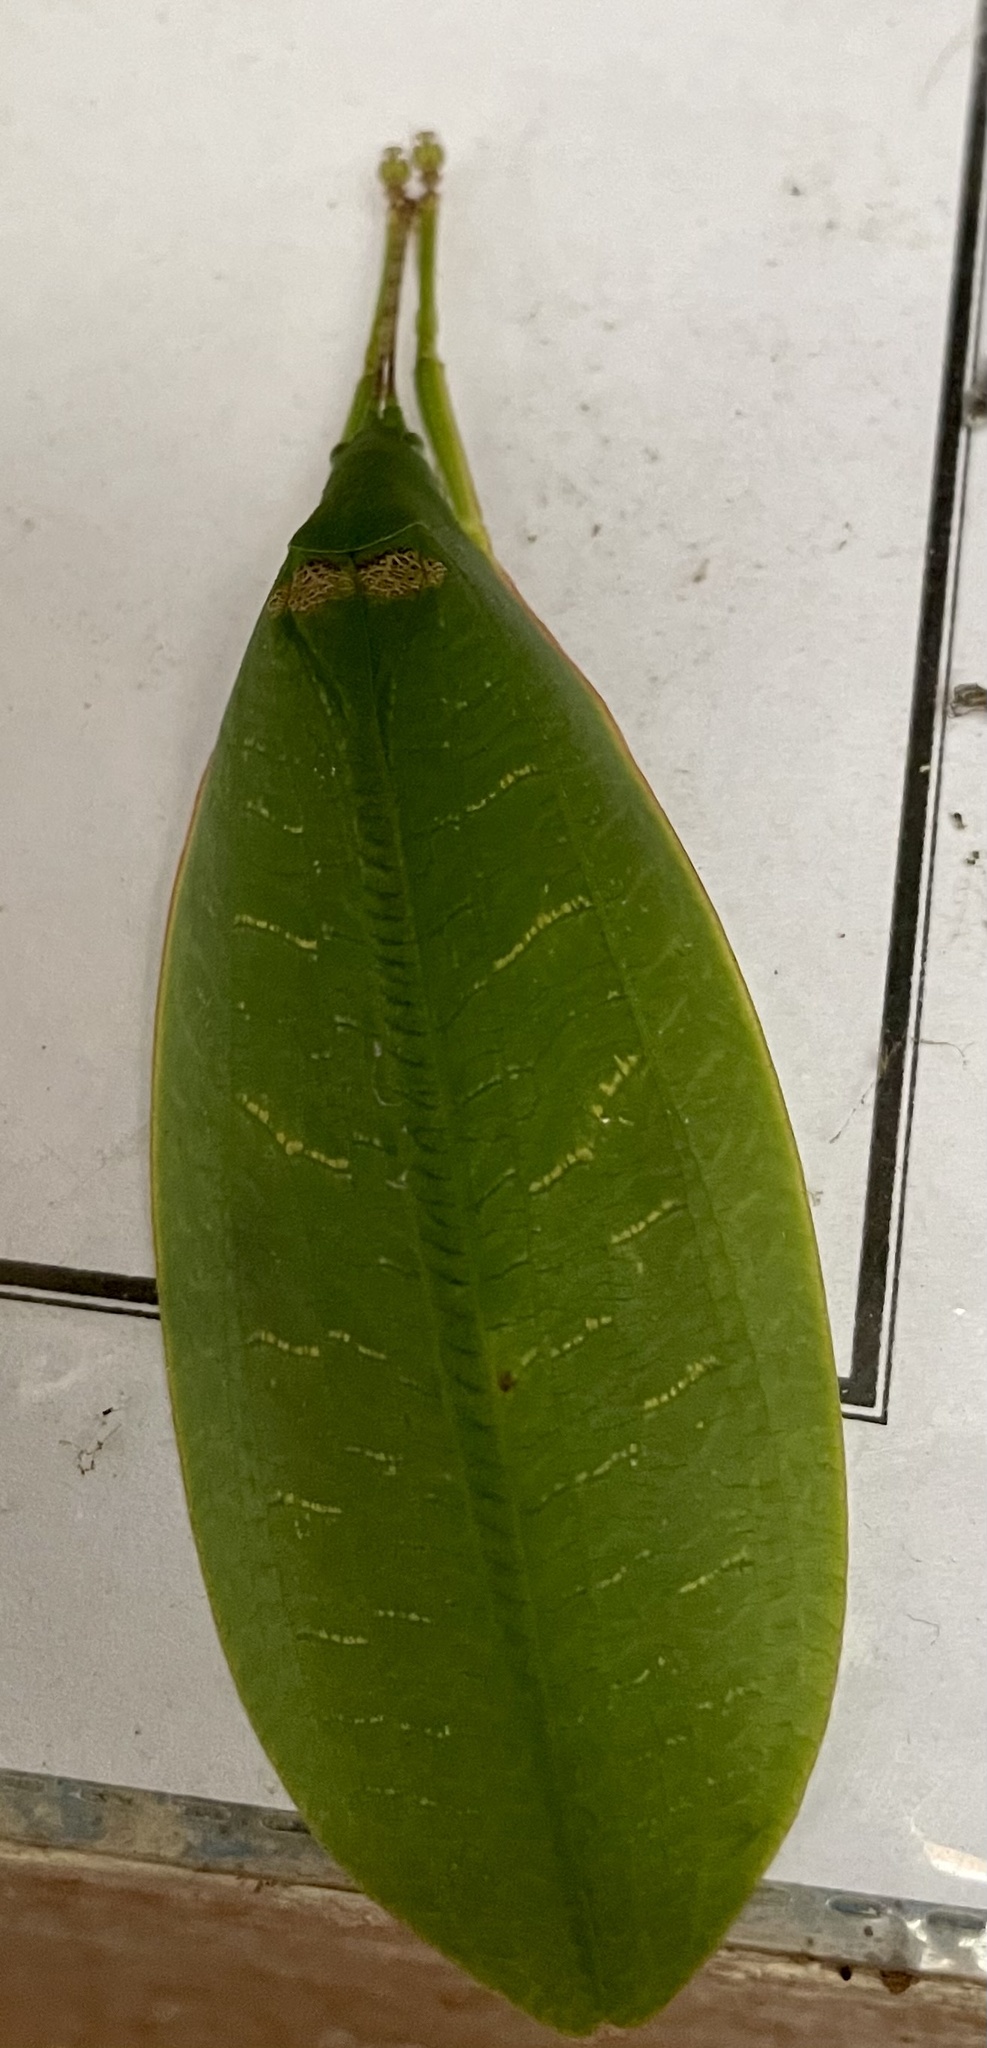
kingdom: Animalia
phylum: Arthropoda
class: Insecta
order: Orthoptera
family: Tettigoniidae
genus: Phyllozelus
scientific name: Phyllozelus siccus
